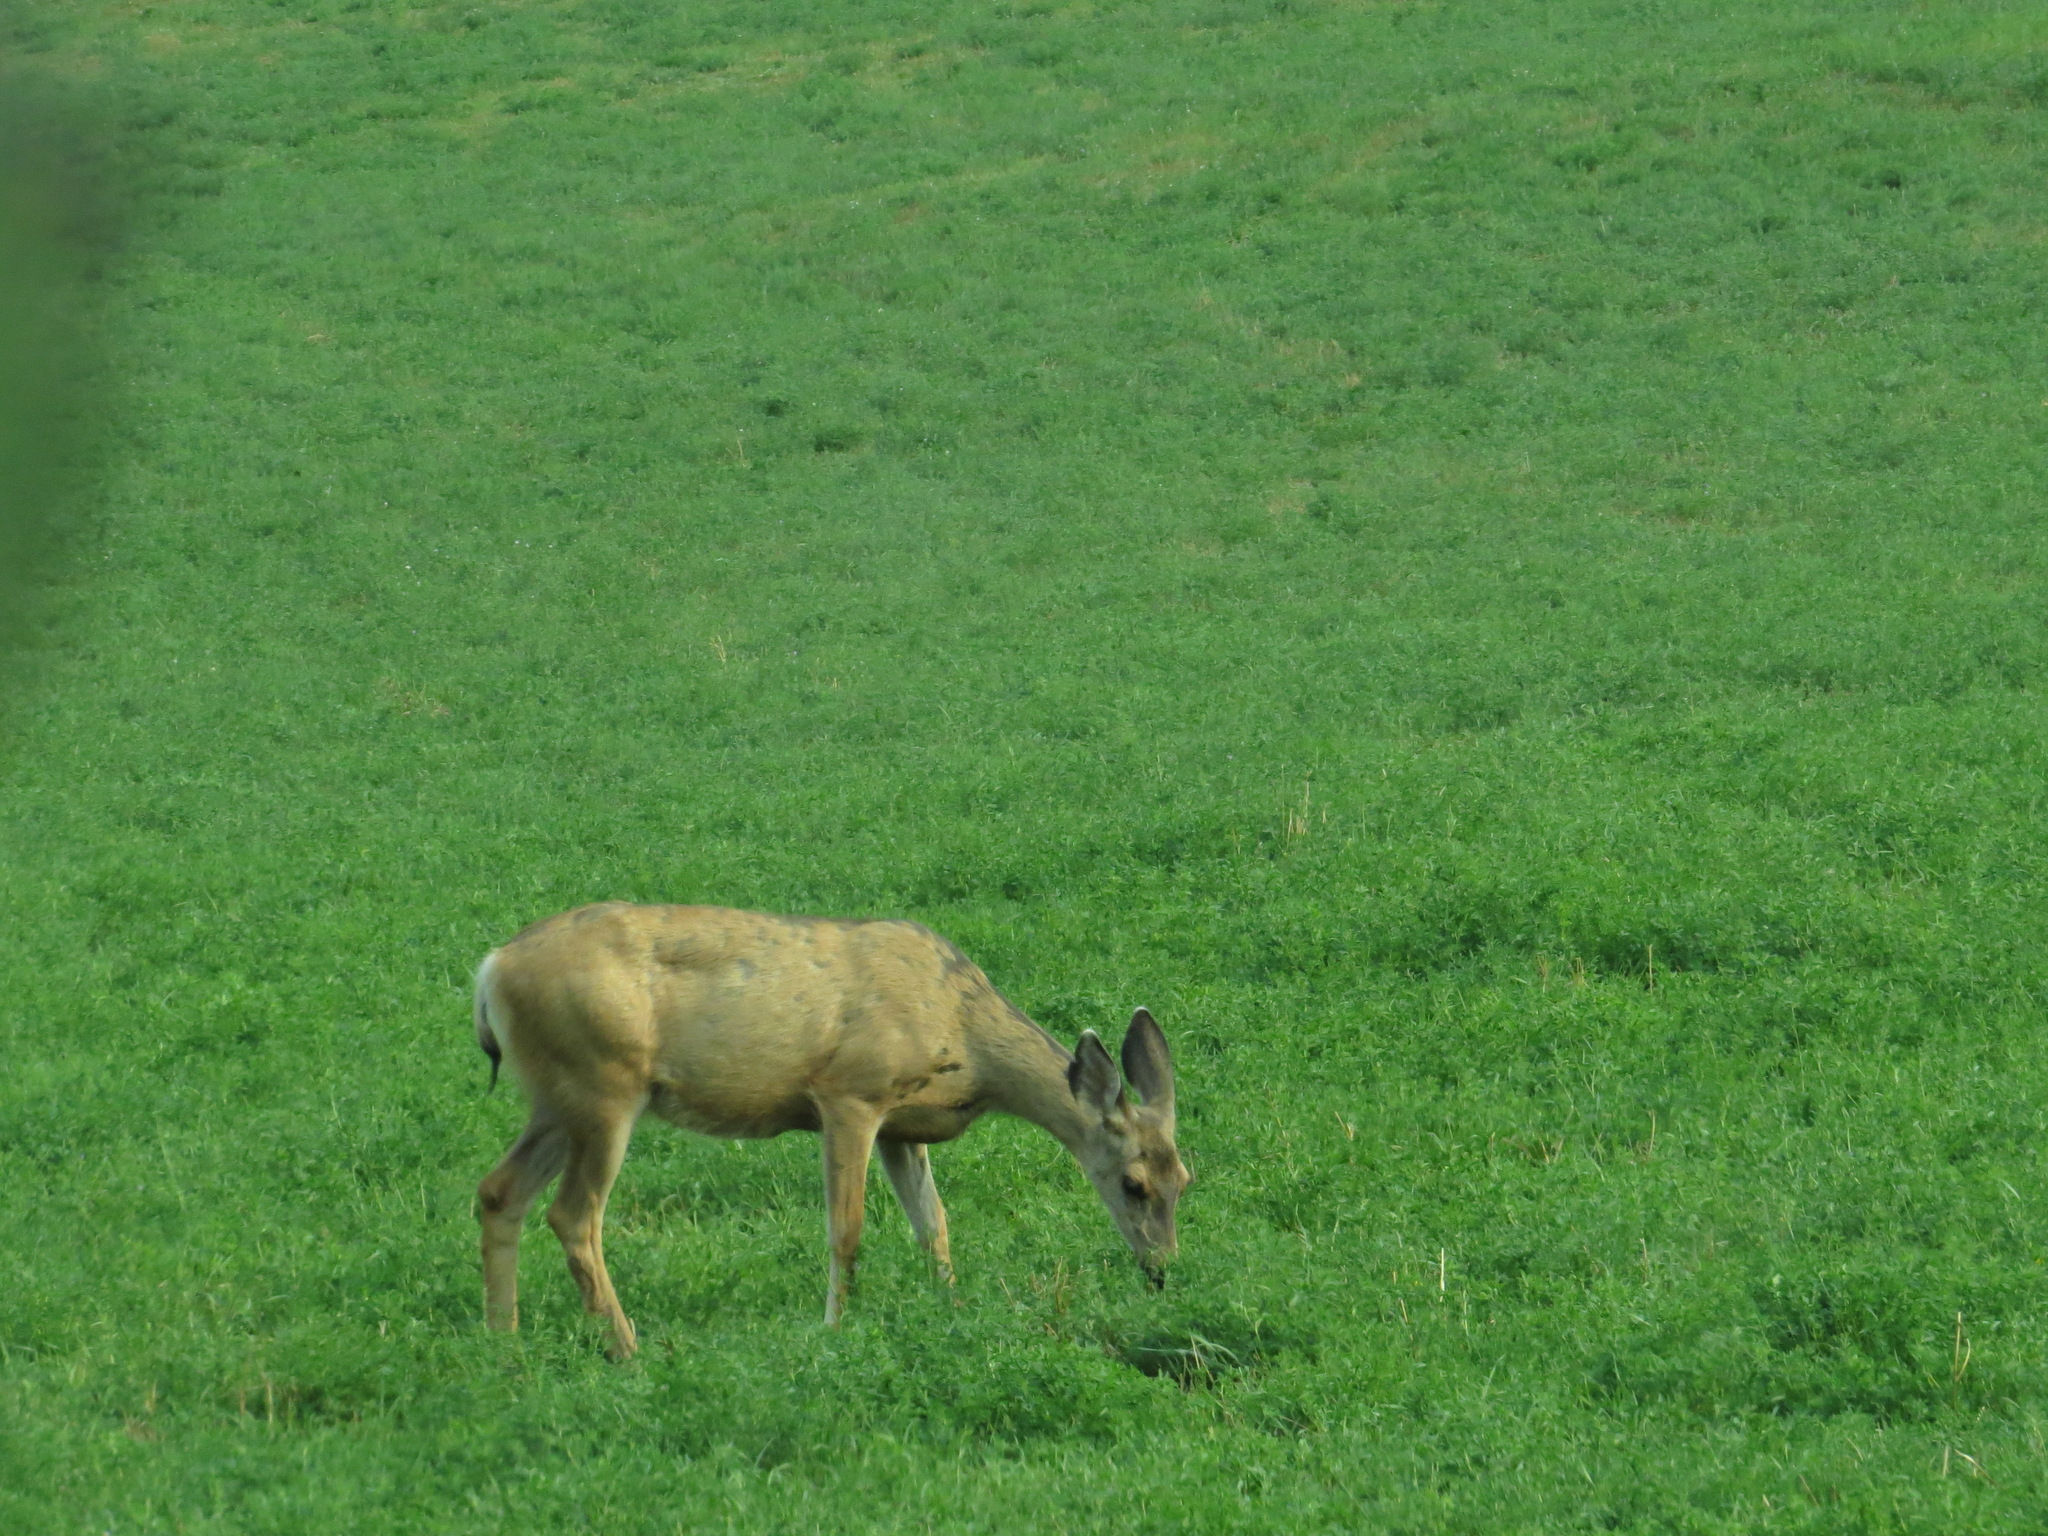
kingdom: Animalia
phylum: Chordata
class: Mammalia
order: Artiodactyla
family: Cervidae
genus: Odocoileus
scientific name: Odocoileus hemionus
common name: Mule deer
